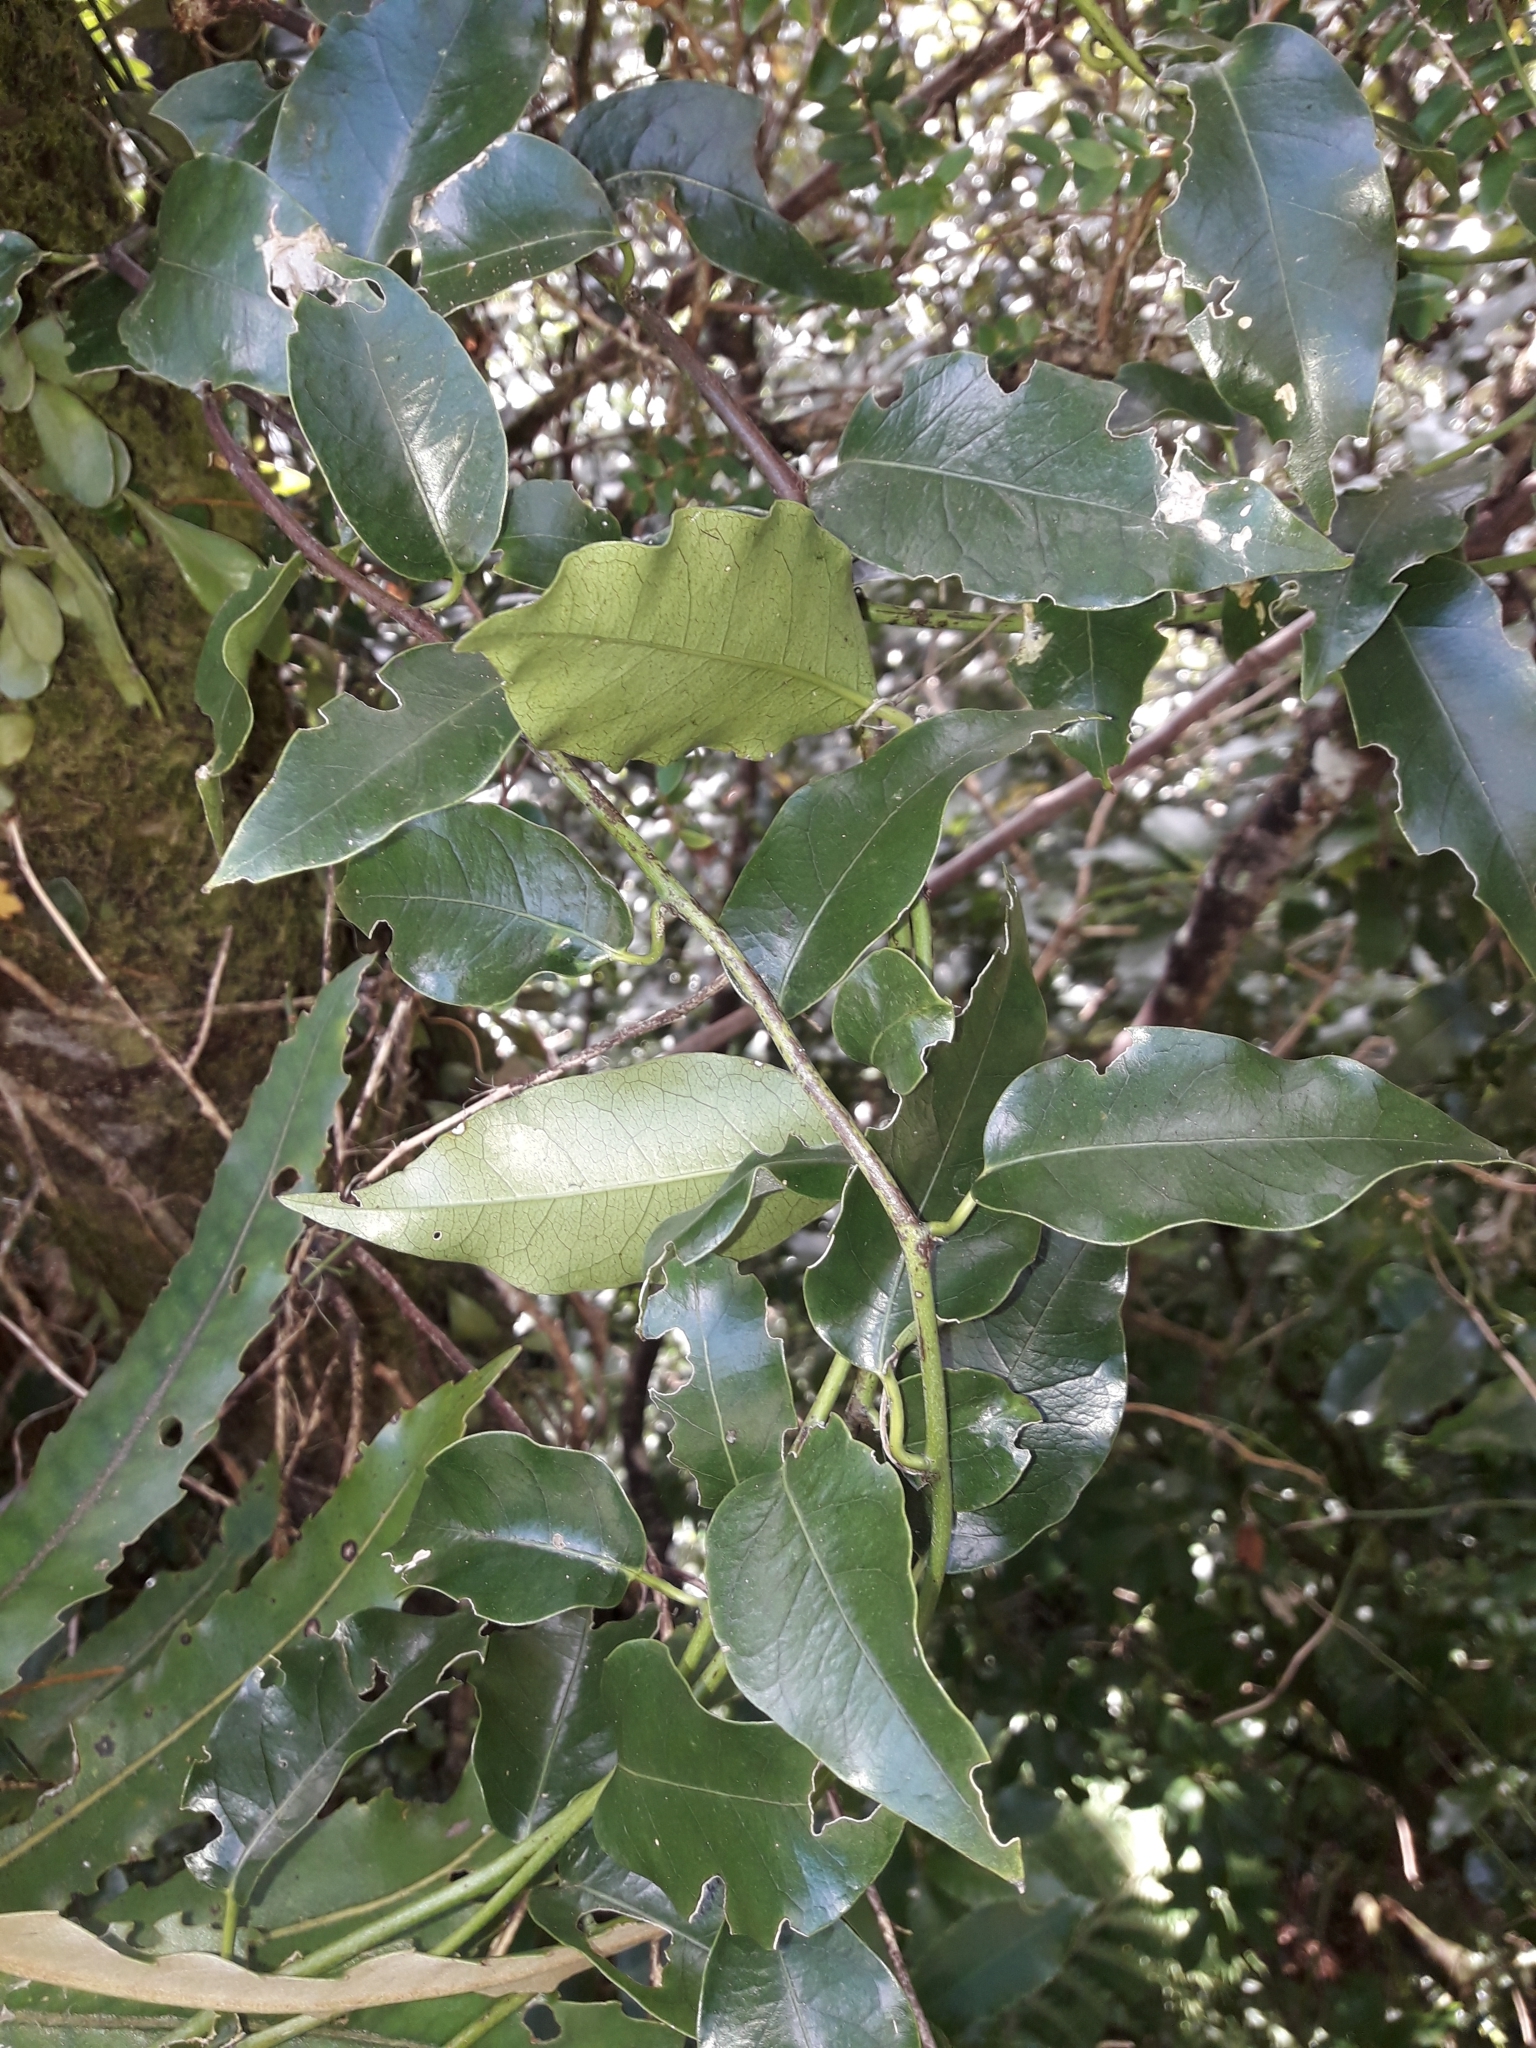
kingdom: Plantae
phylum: Tracheophyta
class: Magnoliopsida
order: Malpighiales
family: Passifloraceae
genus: Passiflora
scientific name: Passiflora tetrandra
